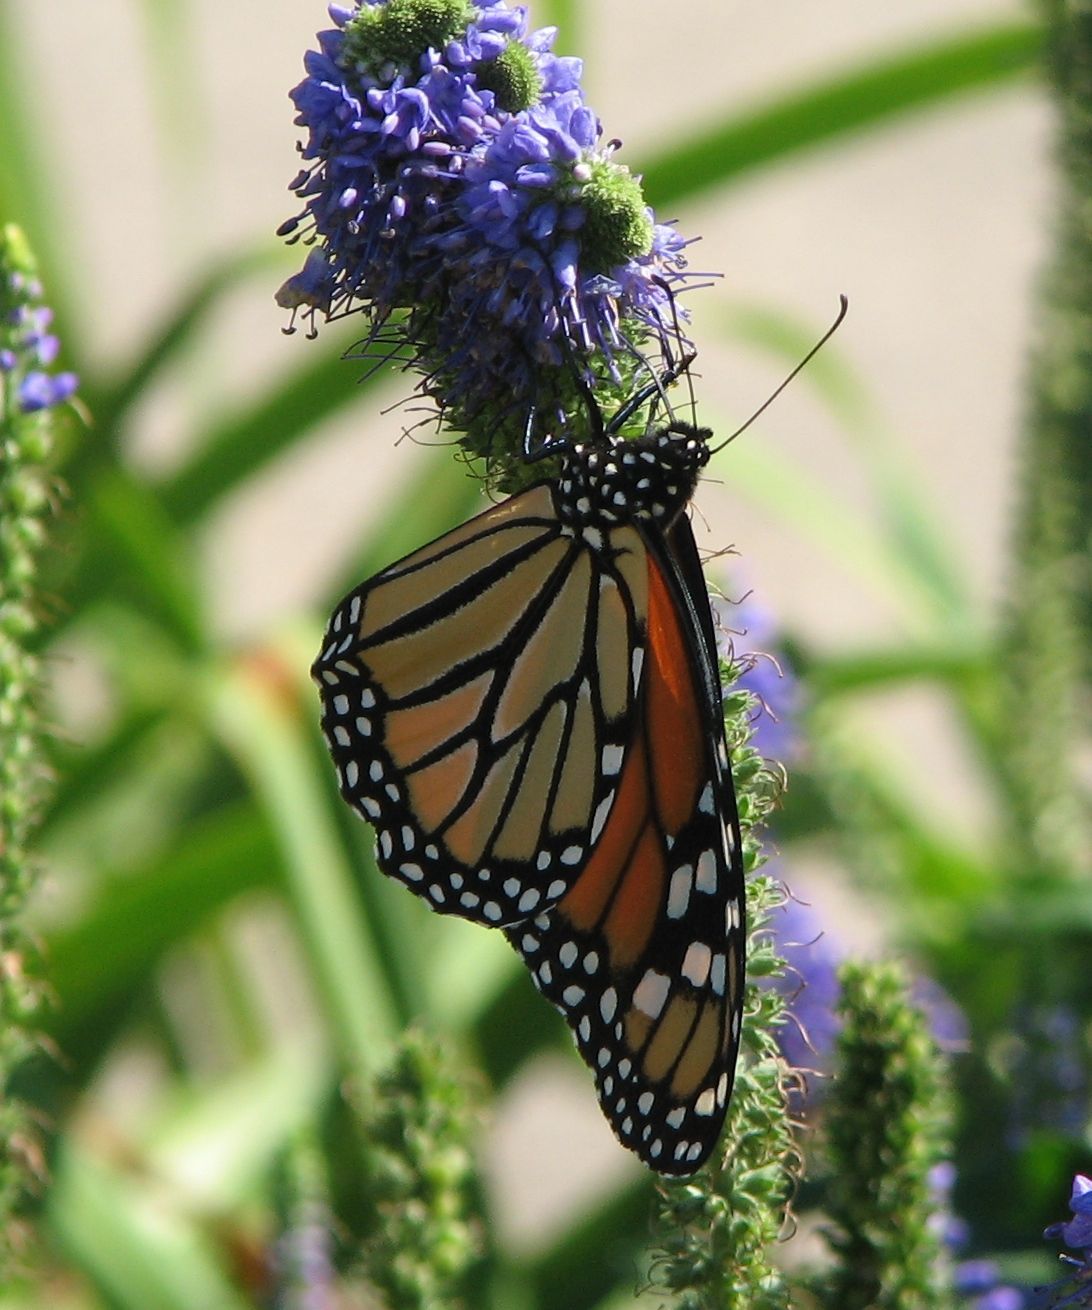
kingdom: Animalia
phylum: Arthropoda
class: Insecta
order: Lepidoptera
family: Nymphalidae
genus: Danaus
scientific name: Danaus plexippus
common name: Monarch
